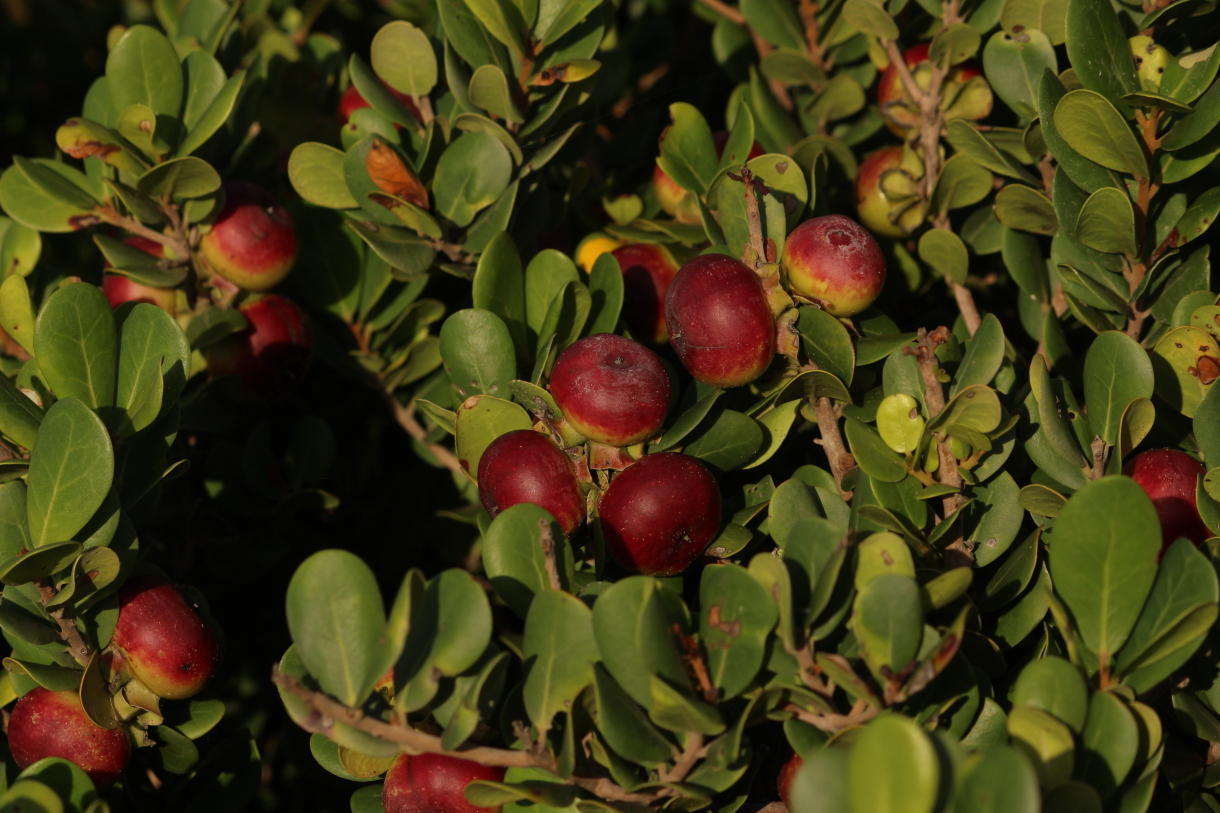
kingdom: Plantae
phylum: Tracheophyta
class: Magnoliopsida
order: Ericales
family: Ebenaceae
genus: Diospyros
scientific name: Diospyros rotundifolia
